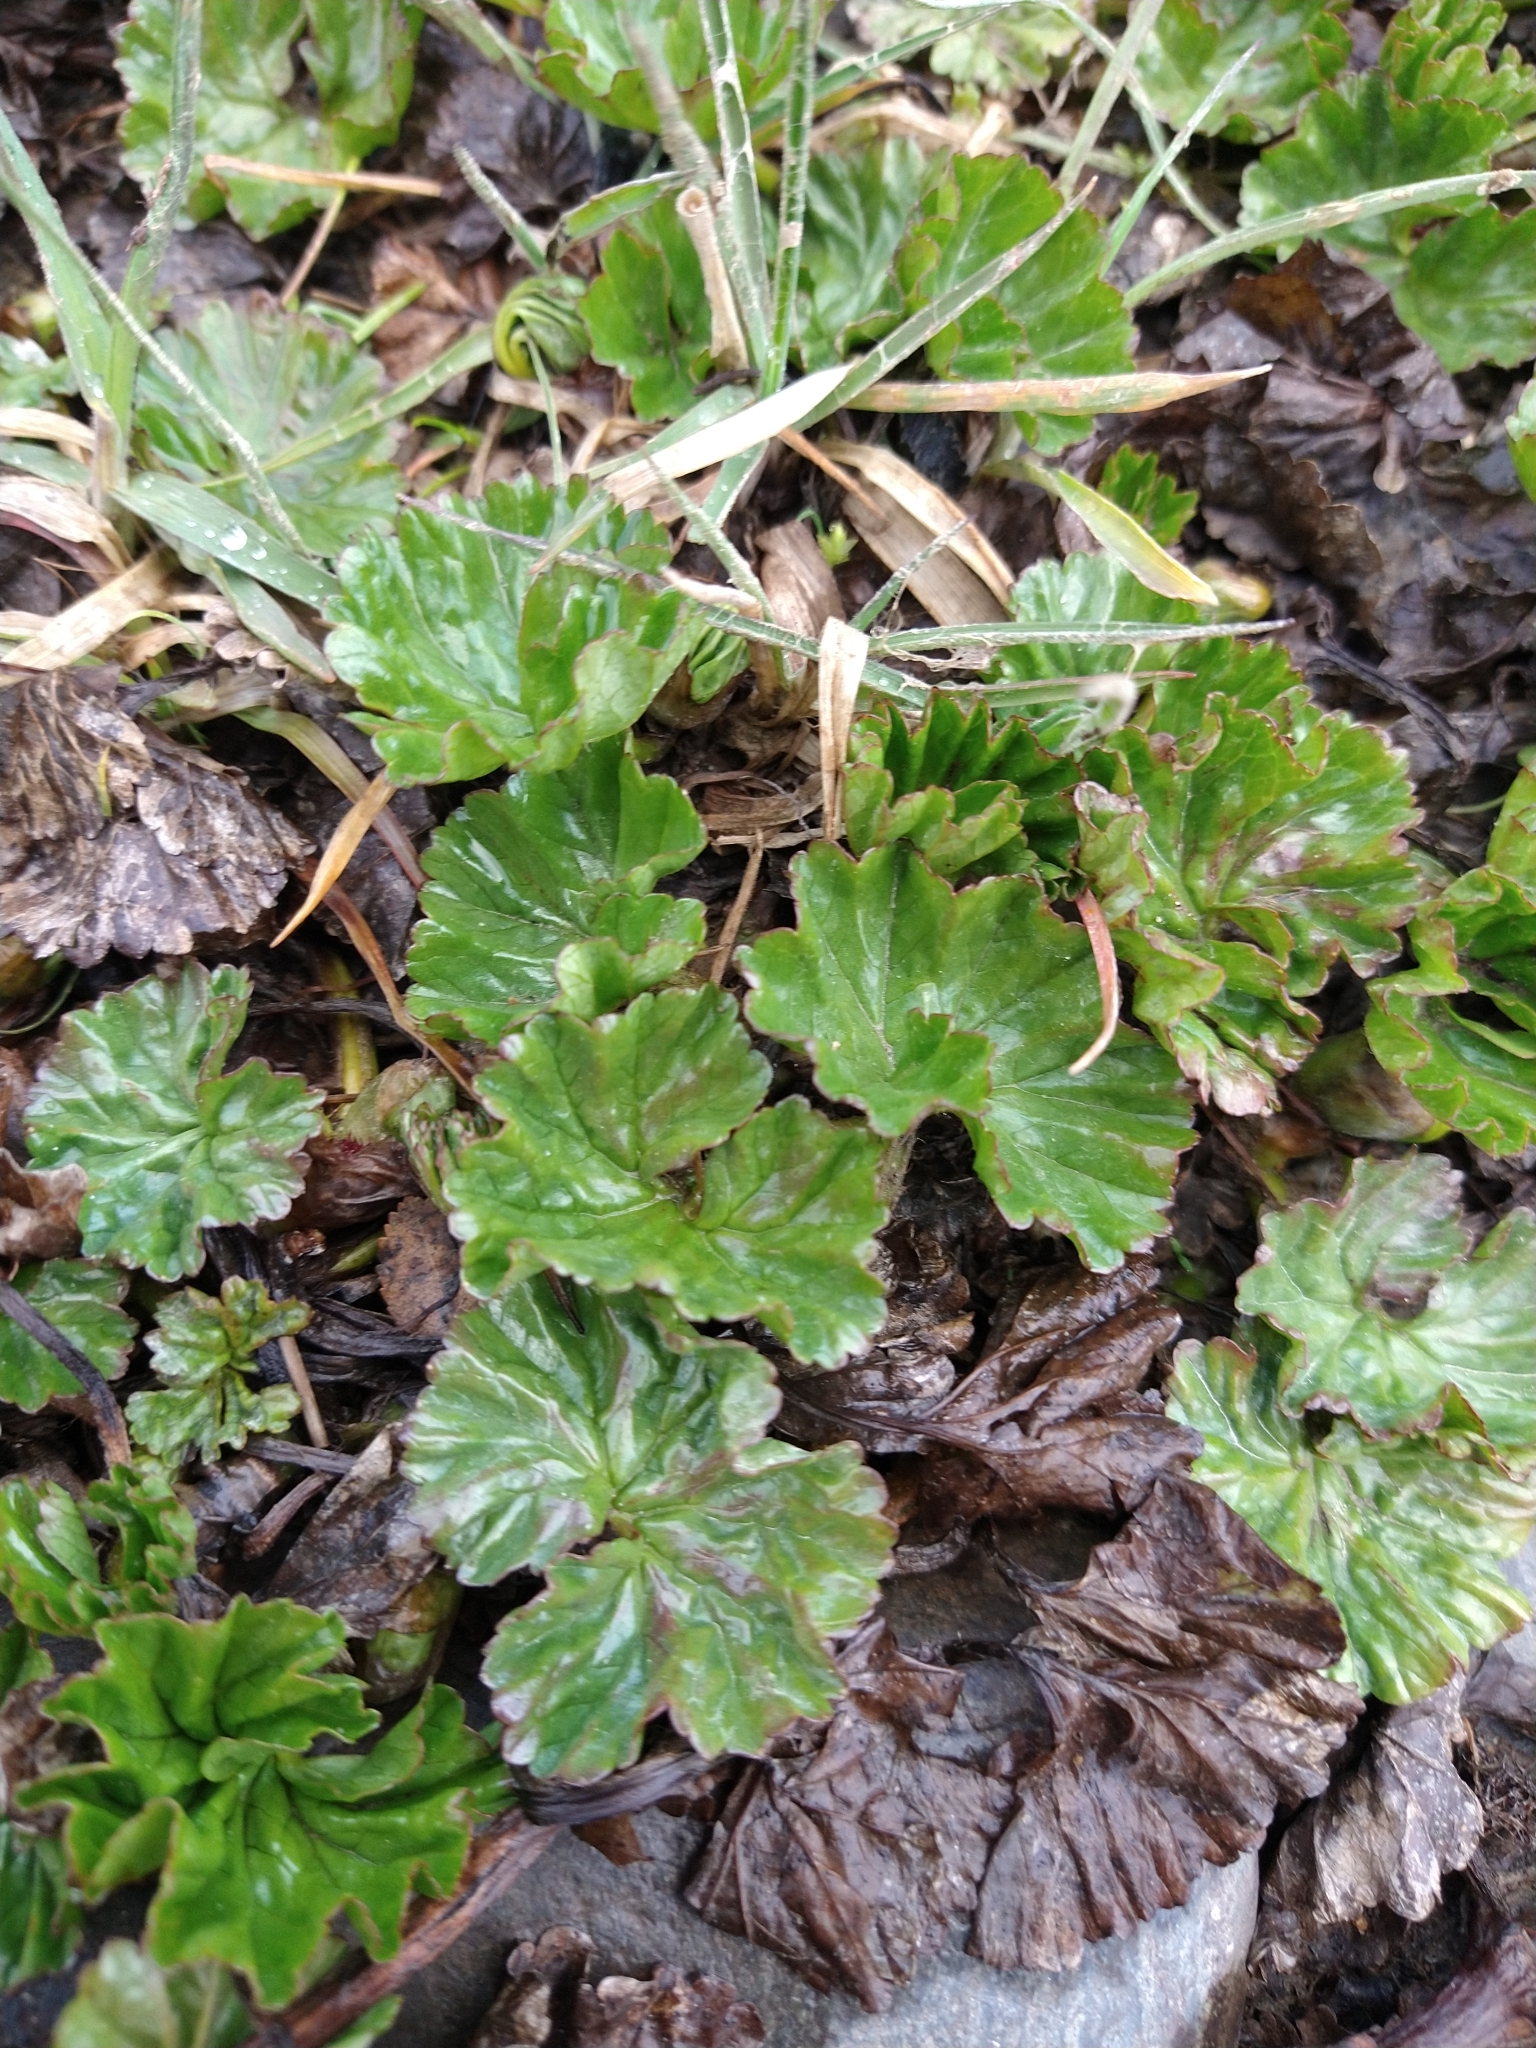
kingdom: Plantae
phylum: Tracheophyta
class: Magnoliopsida
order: Gunnerales
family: Gunneraceae
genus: Gunnera
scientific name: Gunnera magellanica
